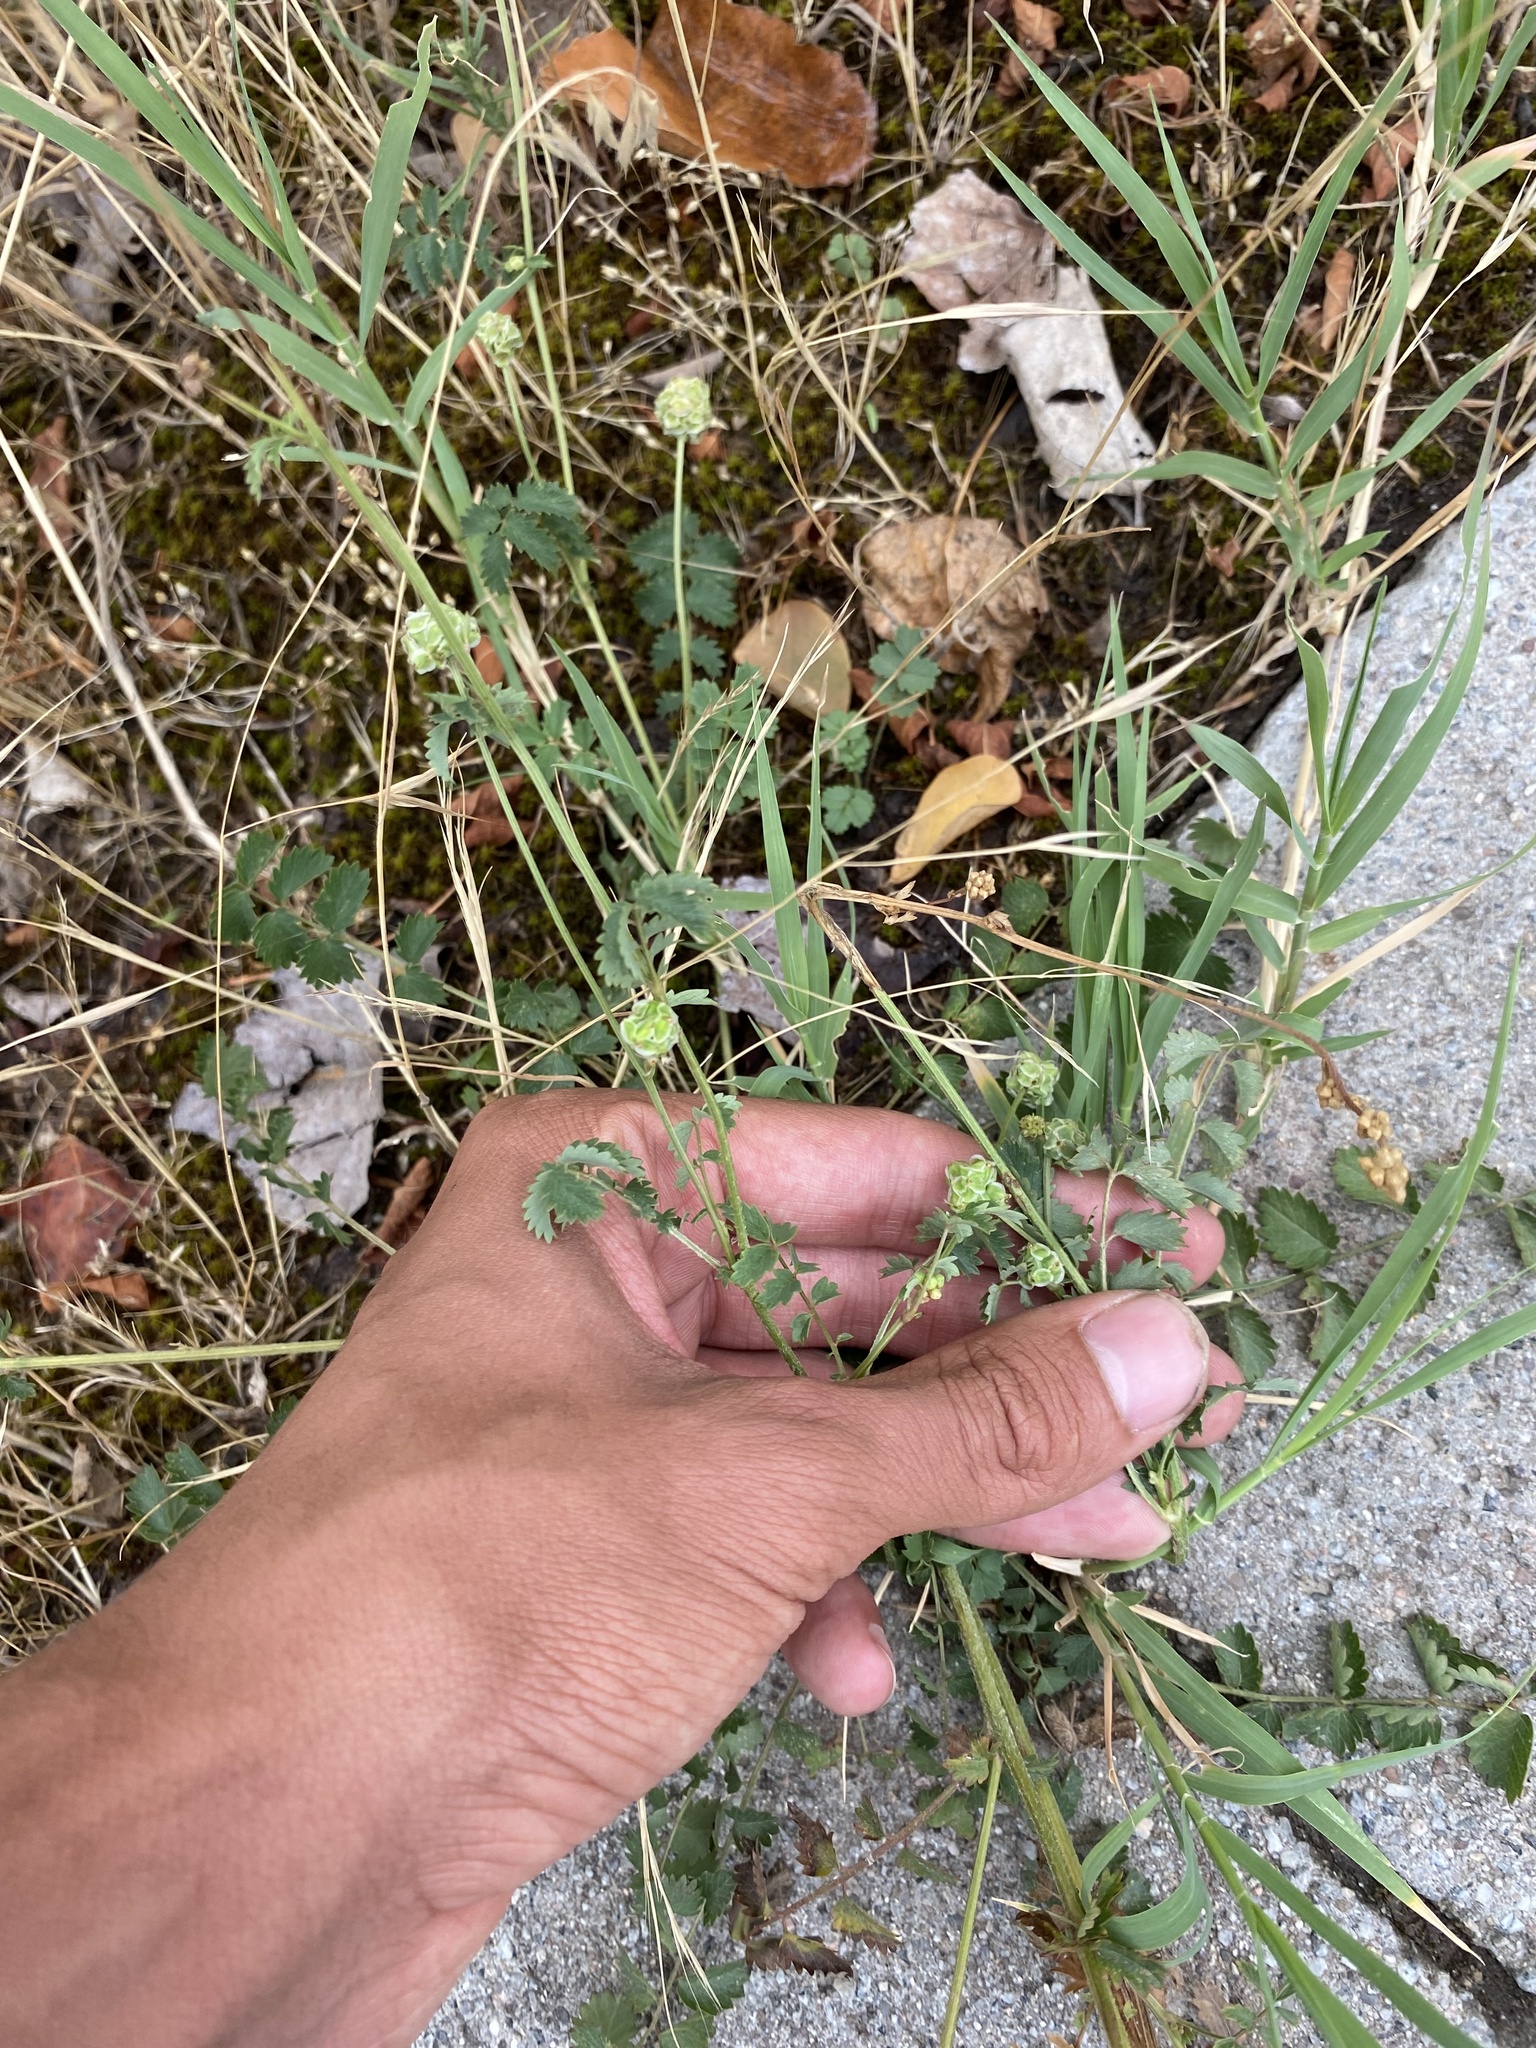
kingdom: Plantae
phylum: Tracheophyta
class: Magnoliopsida
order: Rosales
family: Rosaceae
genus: Poterium
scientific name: Poterium sanguisorba
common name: Salad burnet
